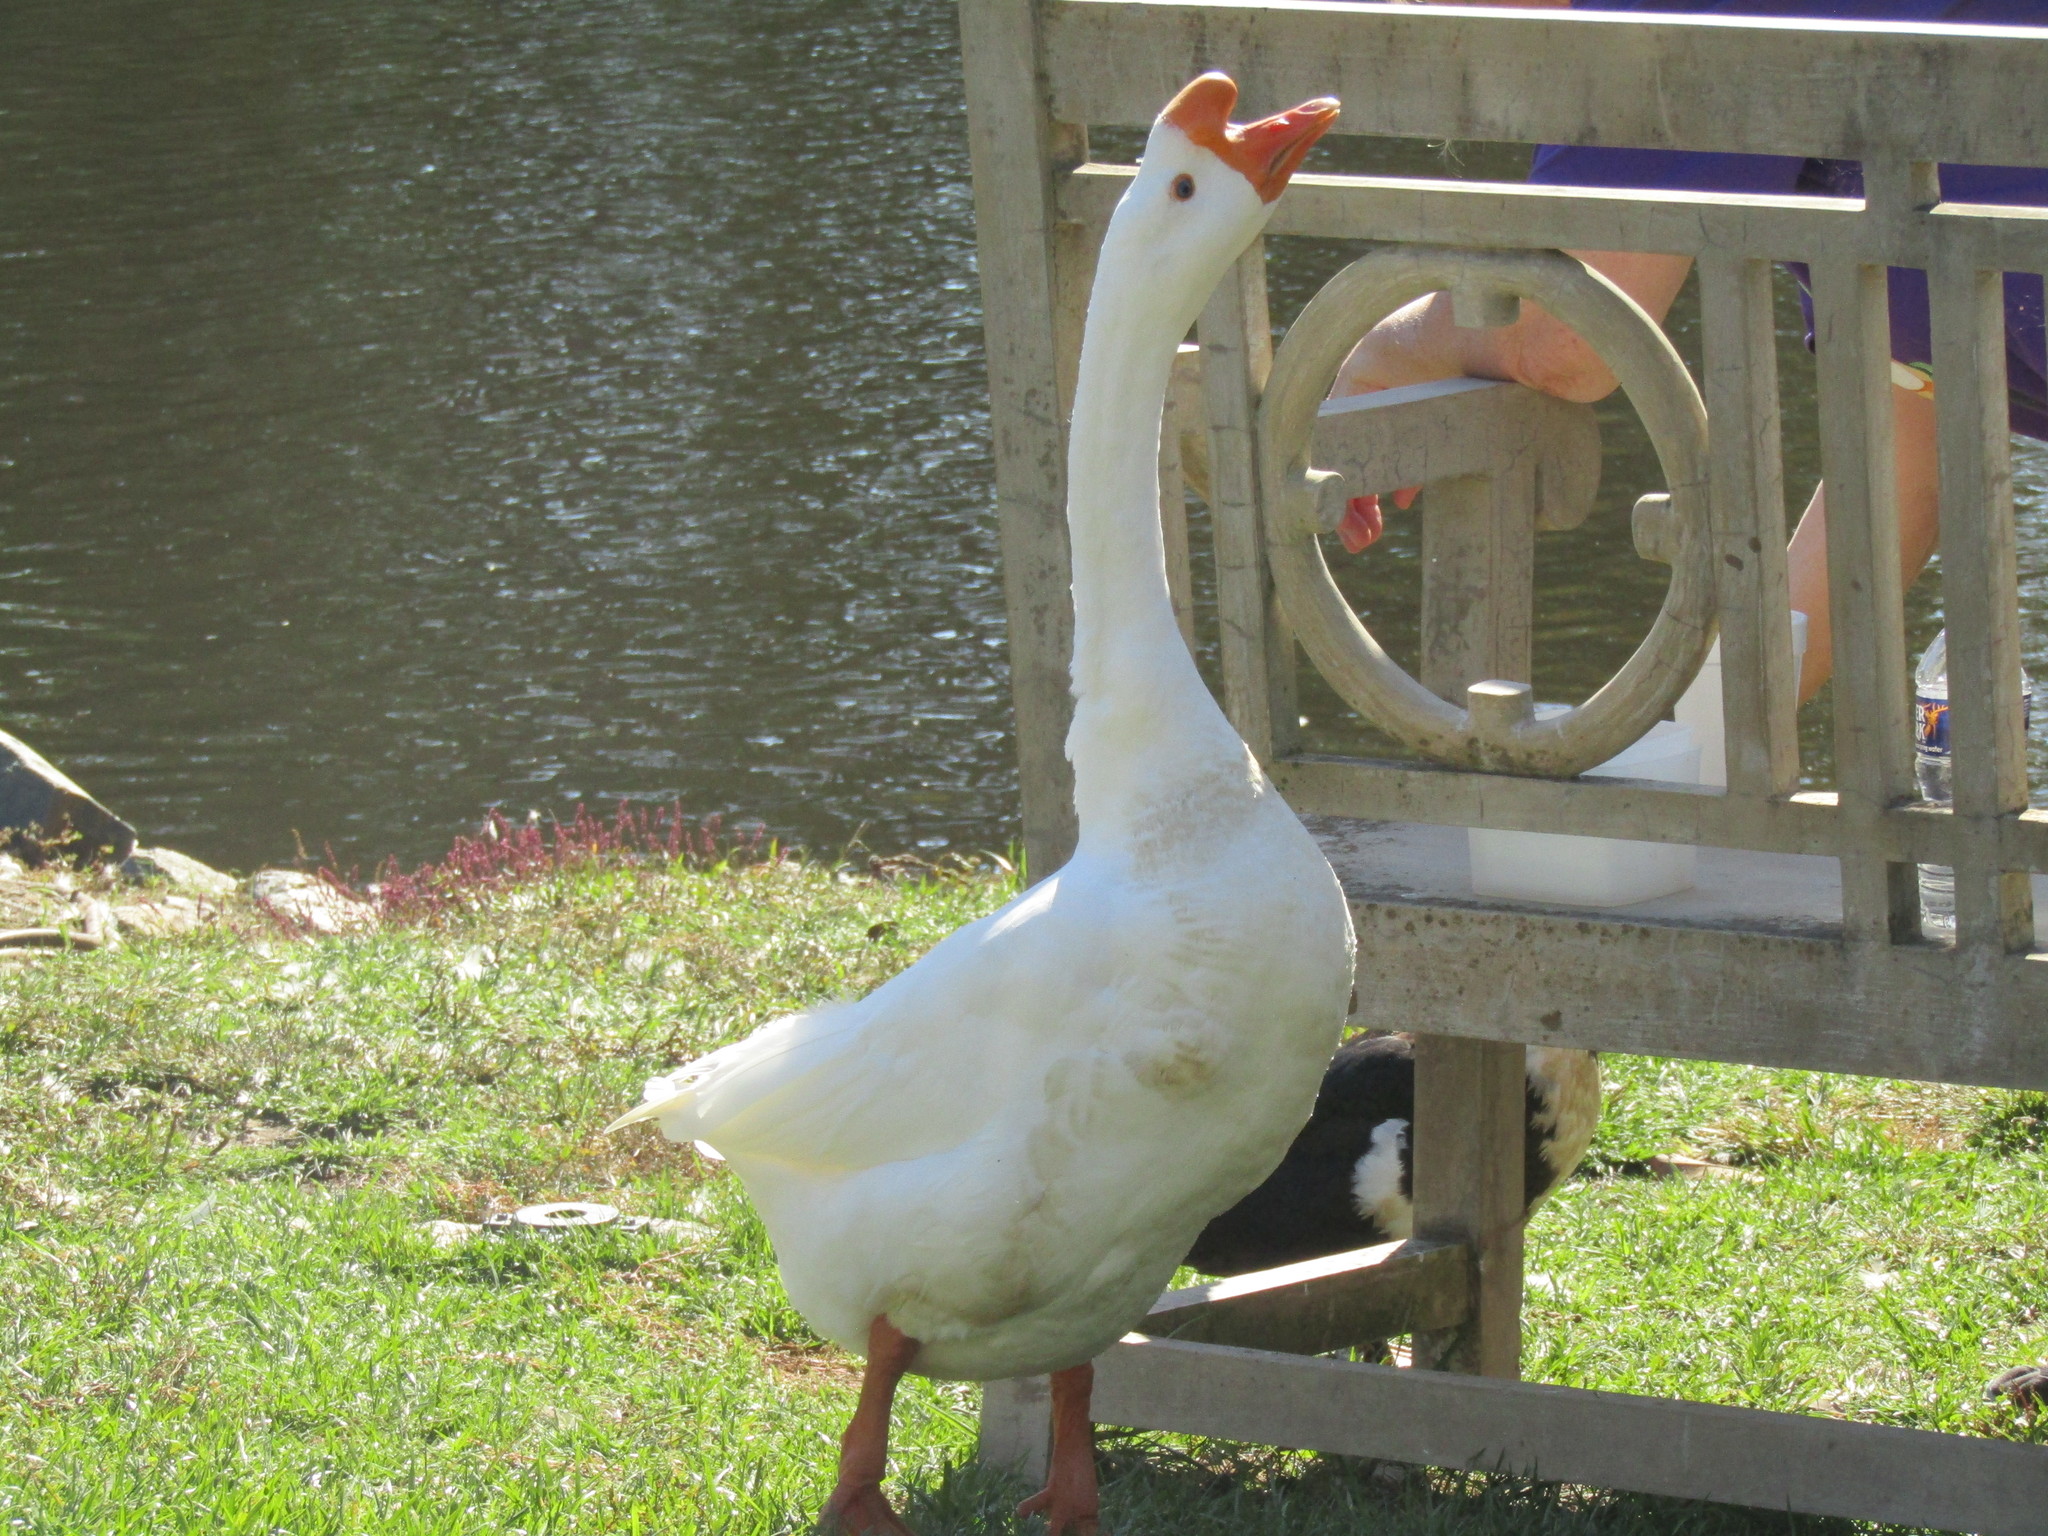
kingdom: Animalia
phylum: Chordata
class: Aves
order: Anseriformes
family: Anatidae
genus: Anser
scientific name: Anser cygnoides
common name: Swan goose
